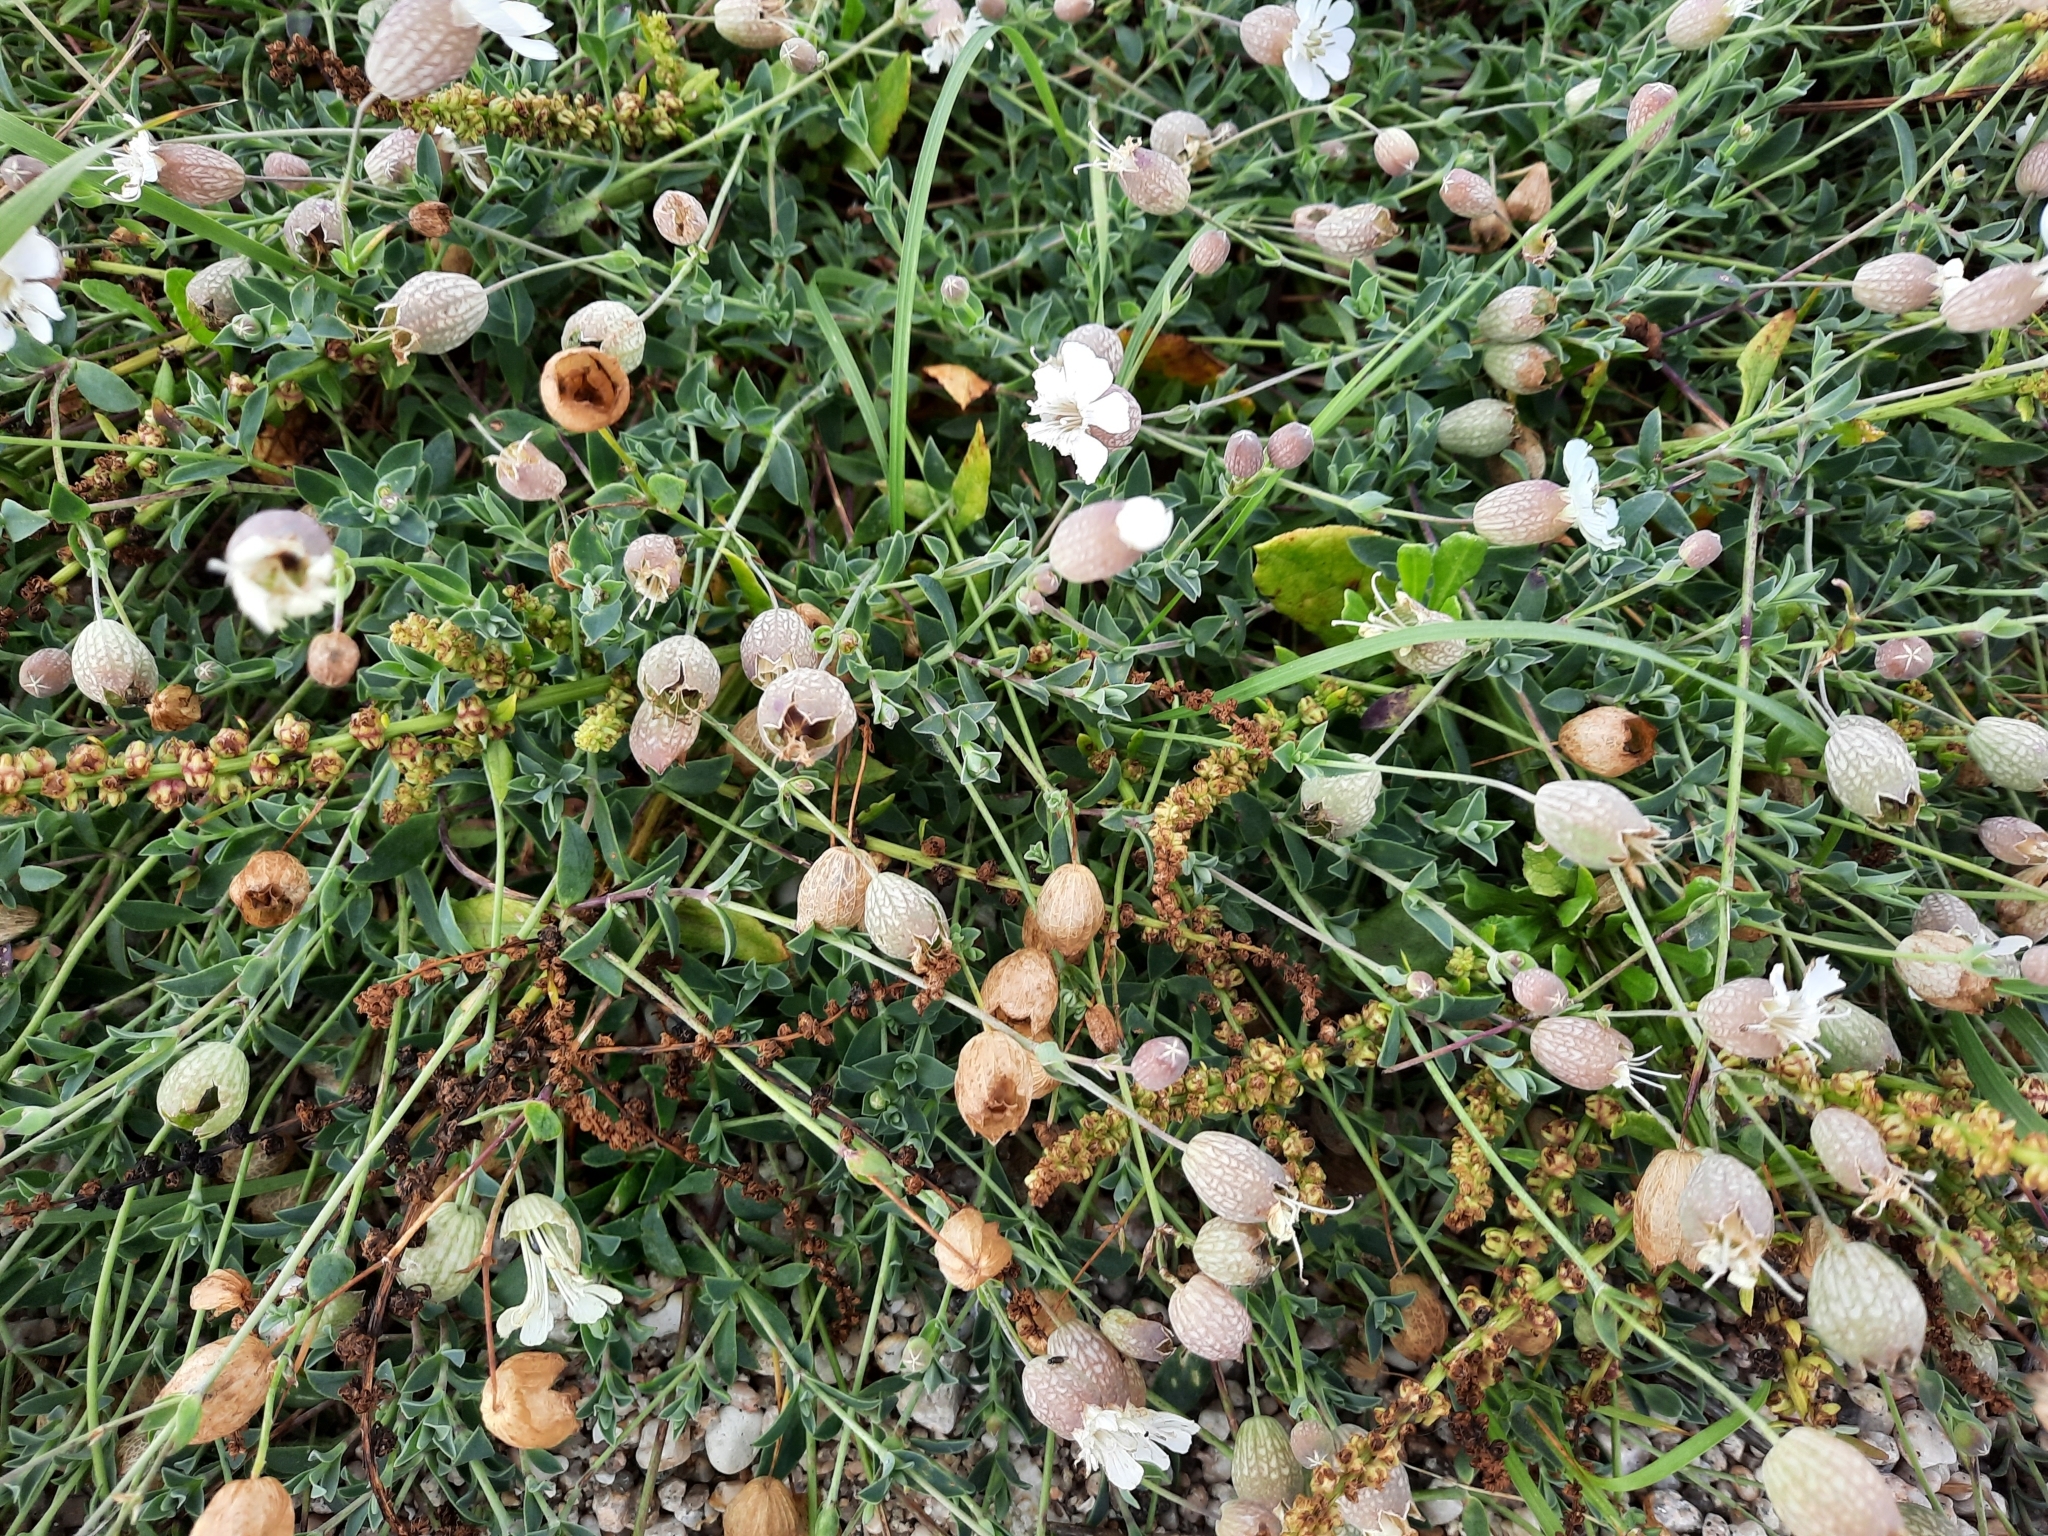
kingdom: Plantae
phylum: Tracheophyta
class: Magnoliopsida
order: Caryophyllales
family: Caryophyllaceae
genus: Silene
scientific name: Silene uniflora
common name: Sea campion
